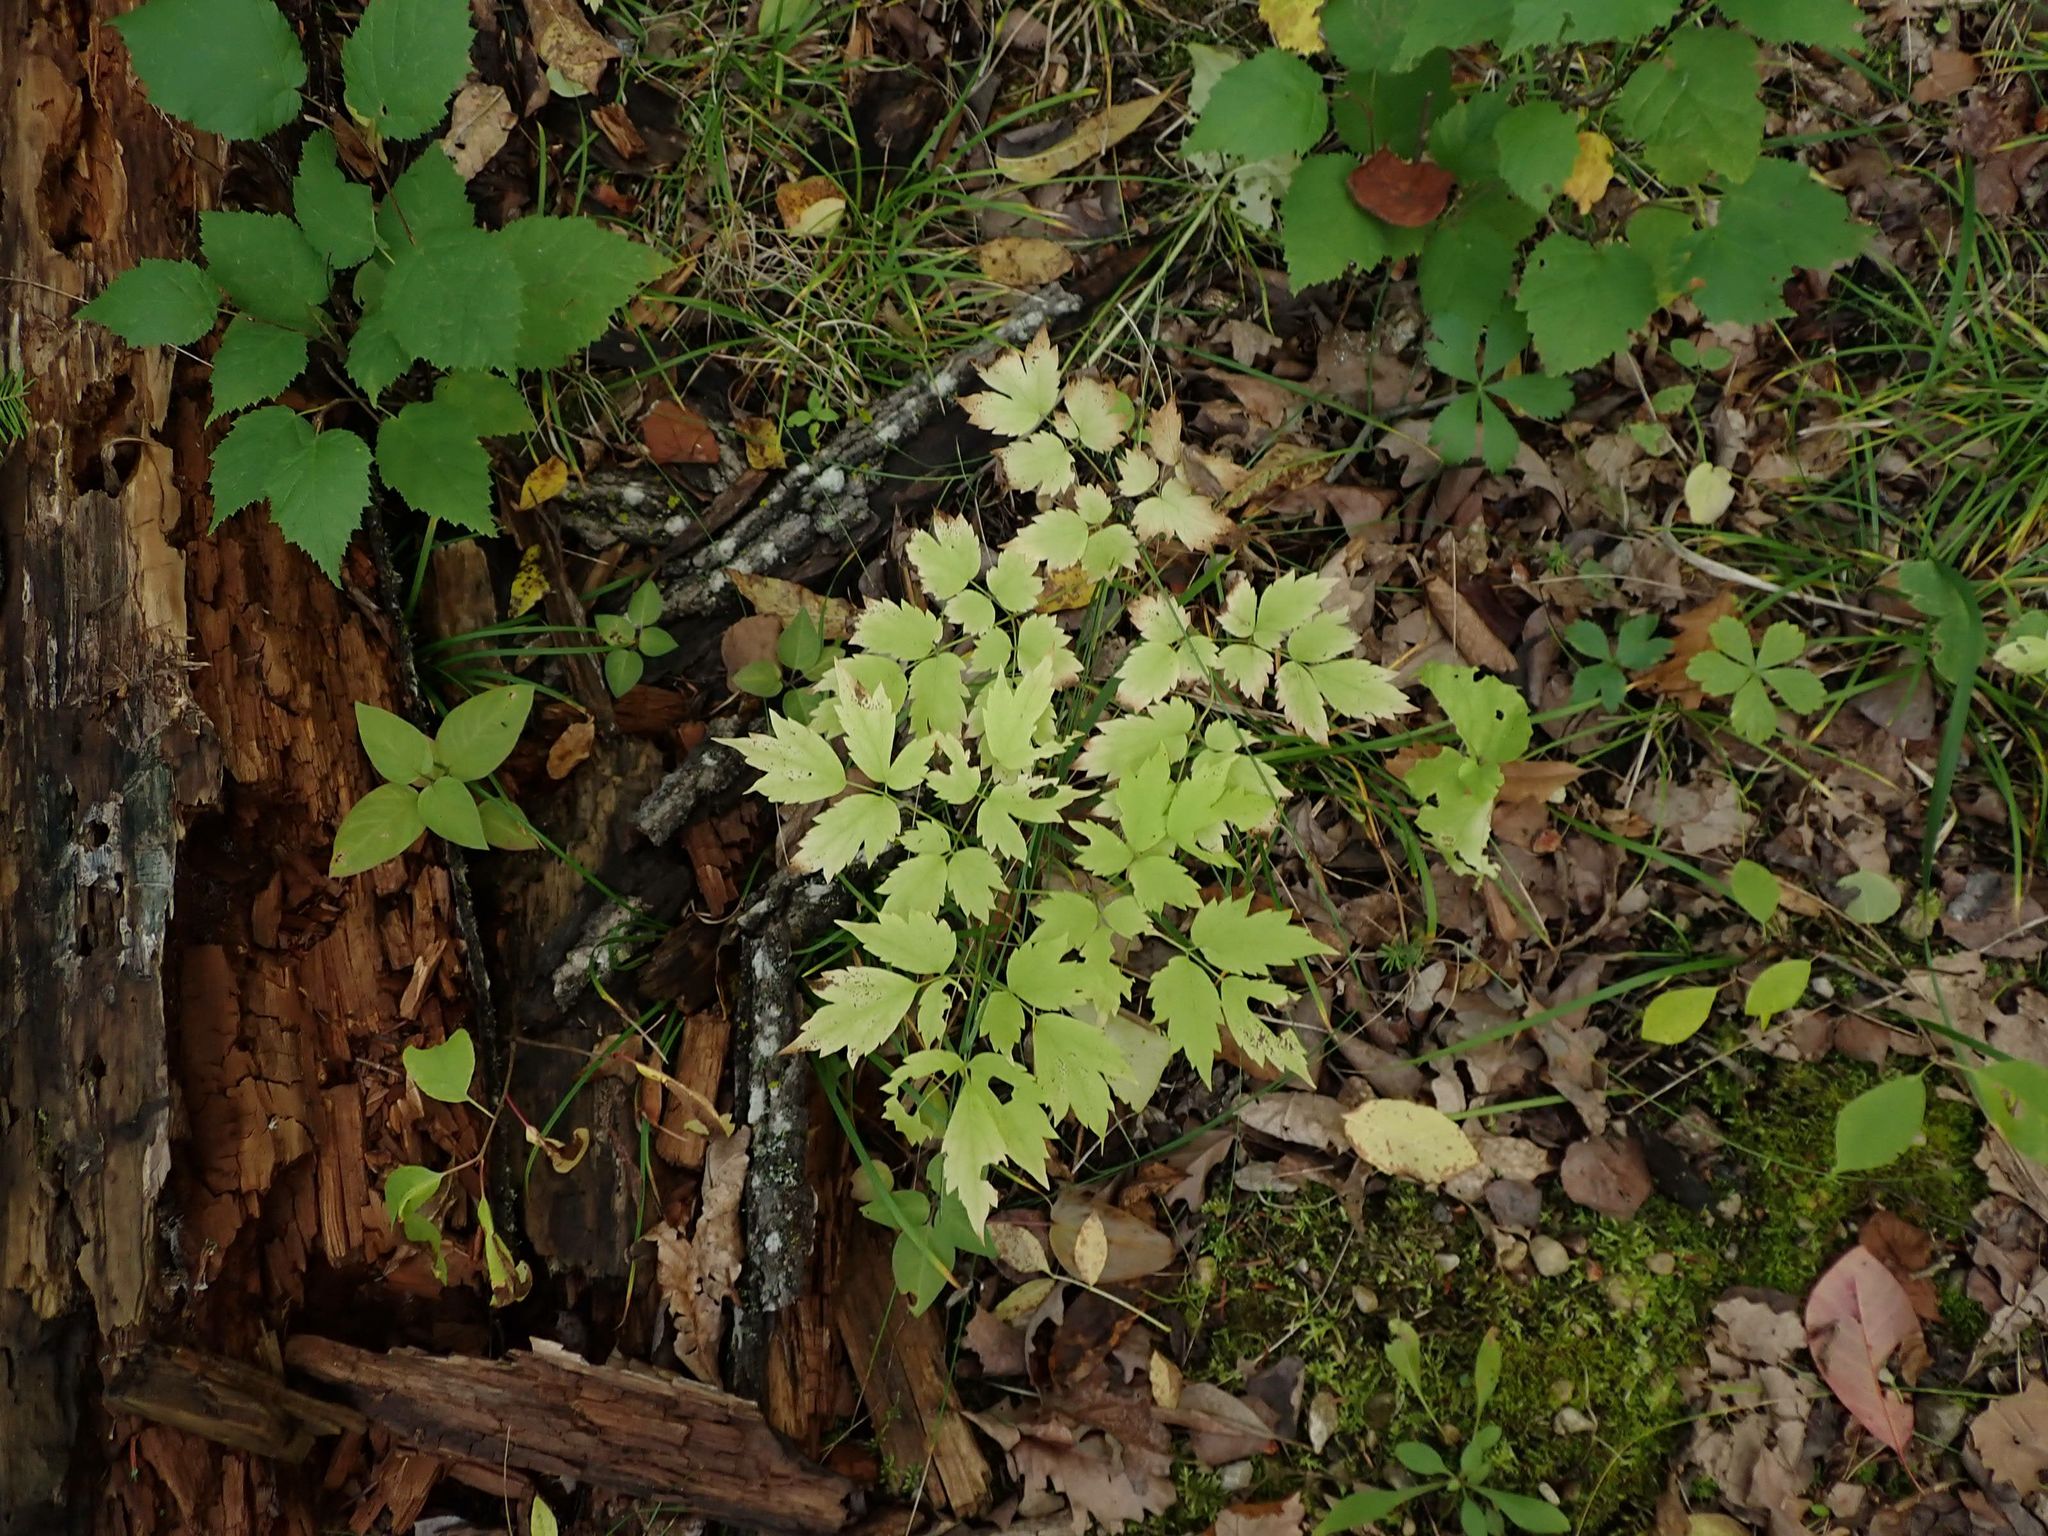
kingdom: Plantae
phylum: Tracheophyta
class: Magnoliopsida
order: Ranunculales
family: Ranunculaceae
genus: Actaea
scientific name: Actaea rubra
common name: Red baneberry
